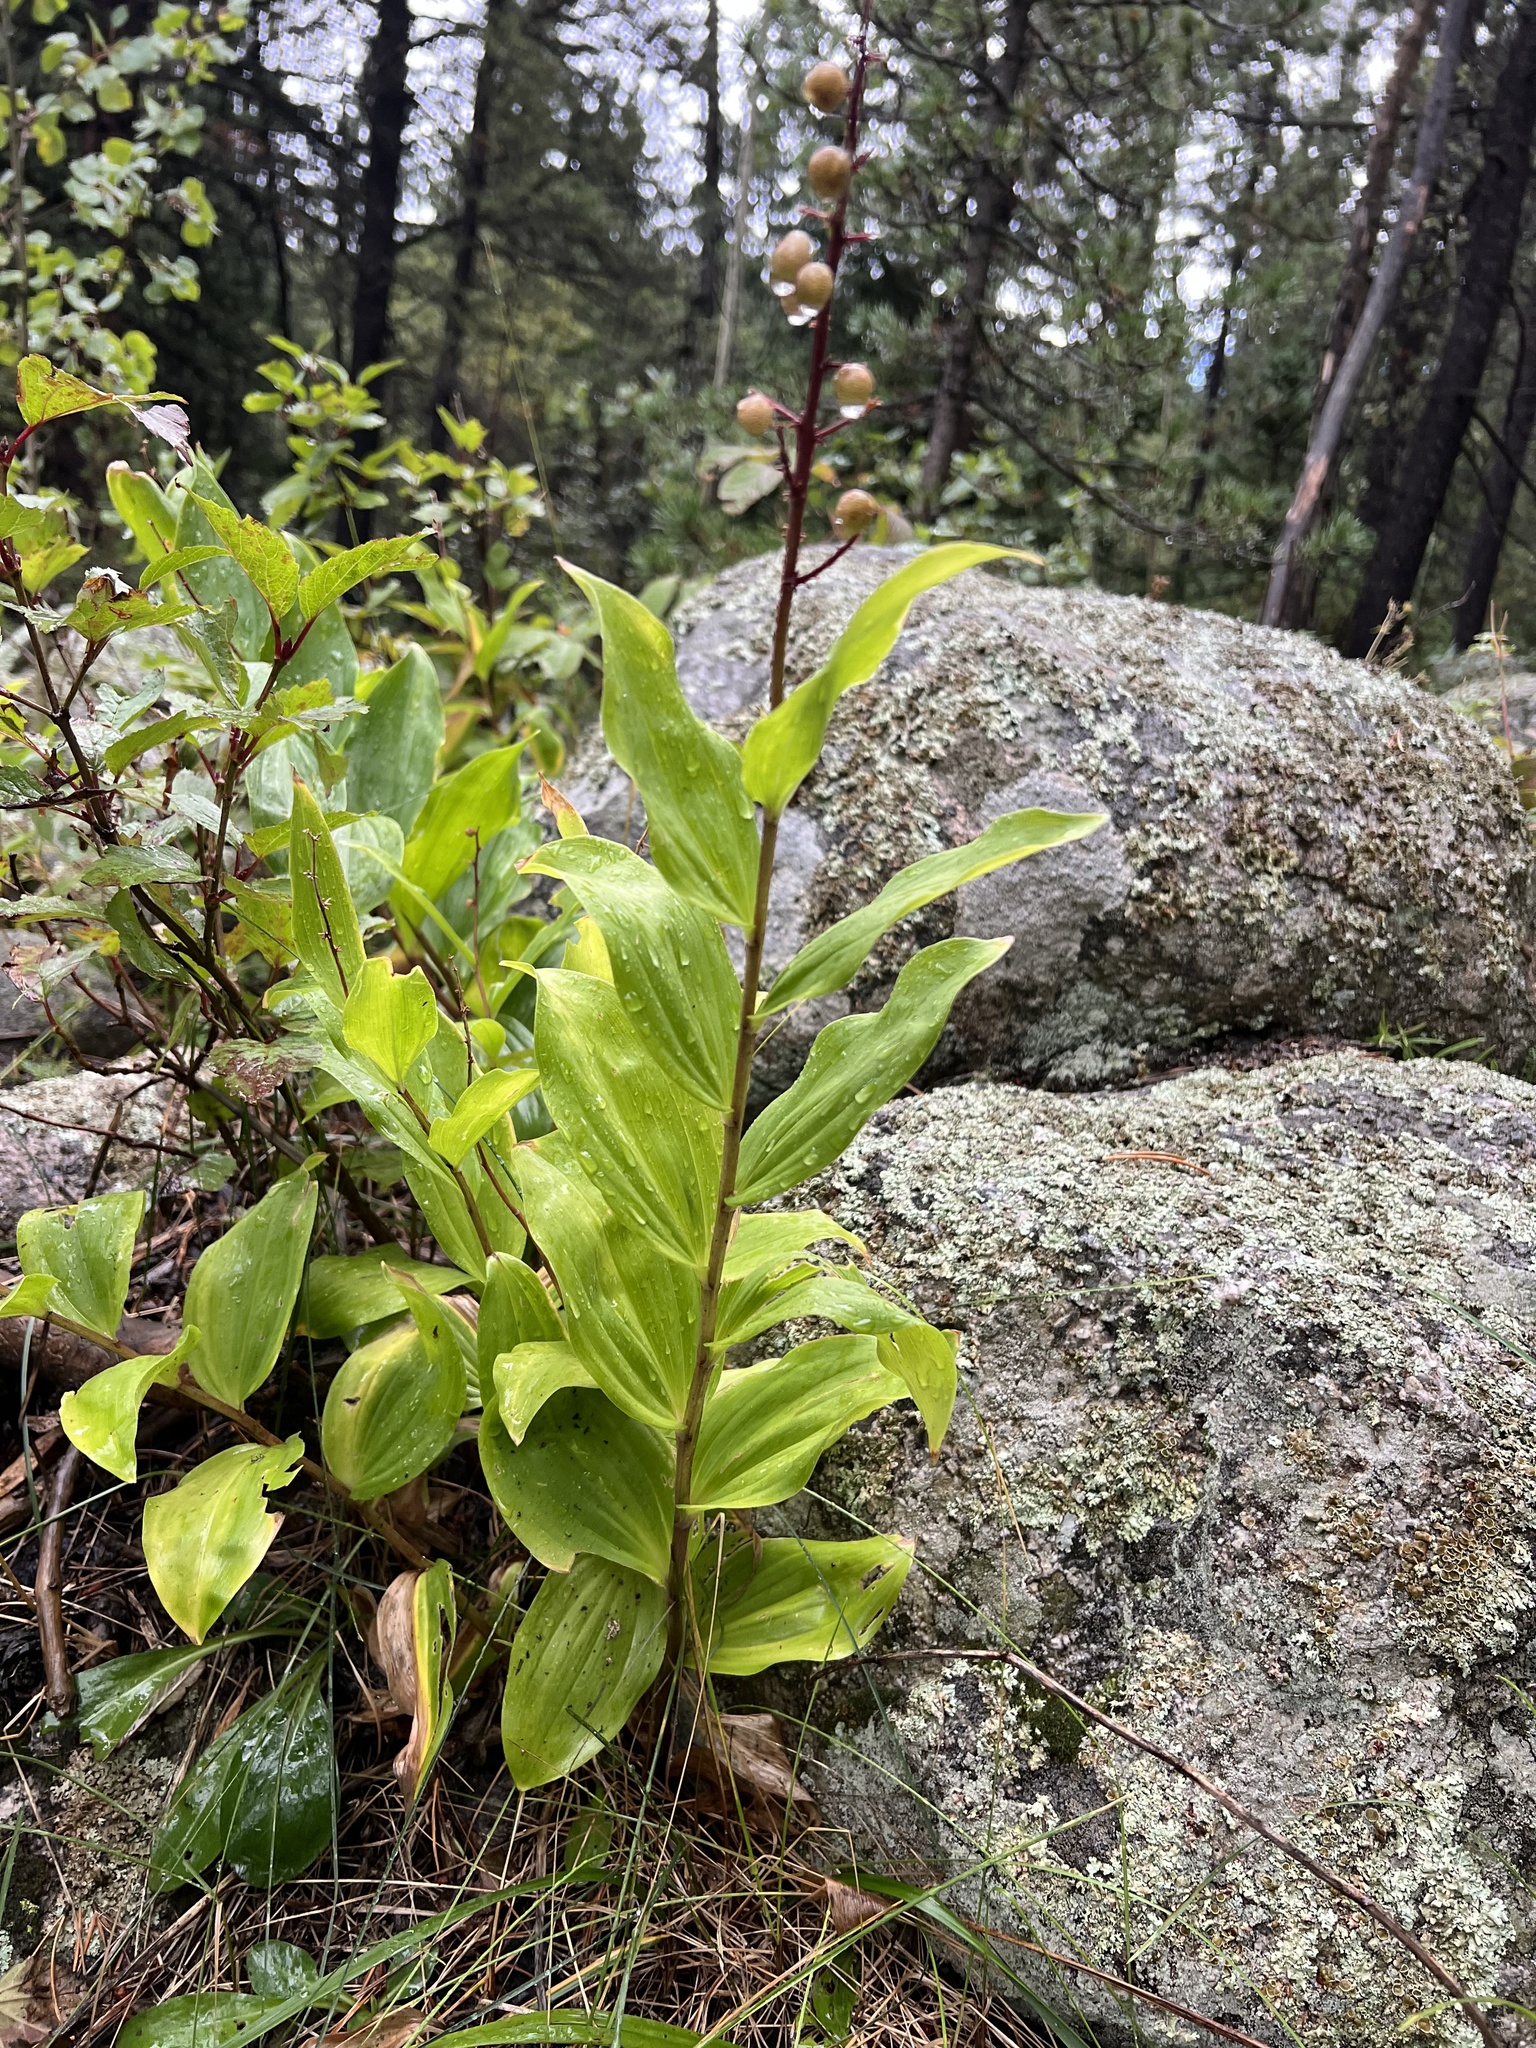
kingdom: Plantae
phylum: Tracheophyta
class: Liliopsida
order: Asparagales
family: Asparagaceae
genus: Maianthemum
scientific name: Maianthemum racemosum
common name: False spikenard
